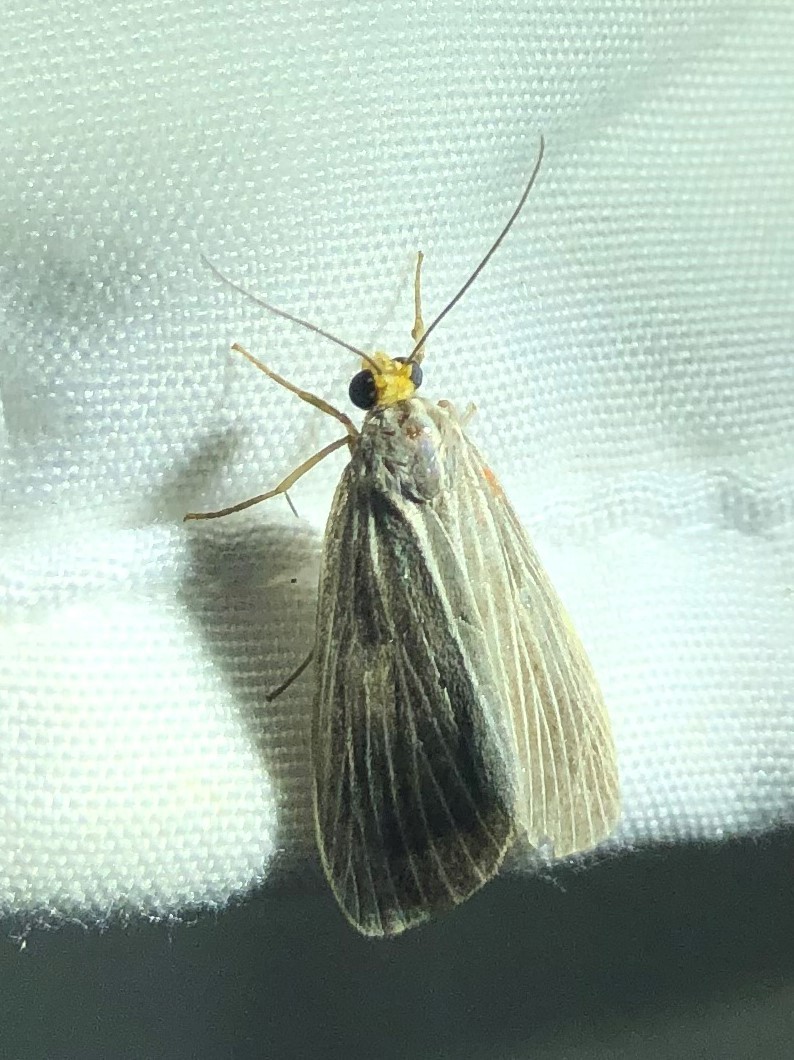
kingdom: Animalia
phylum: Arthropoda
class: Insecta
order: Lepidoptera
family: Notodontidae
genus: Scotura
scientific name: Scotura leucophleps
